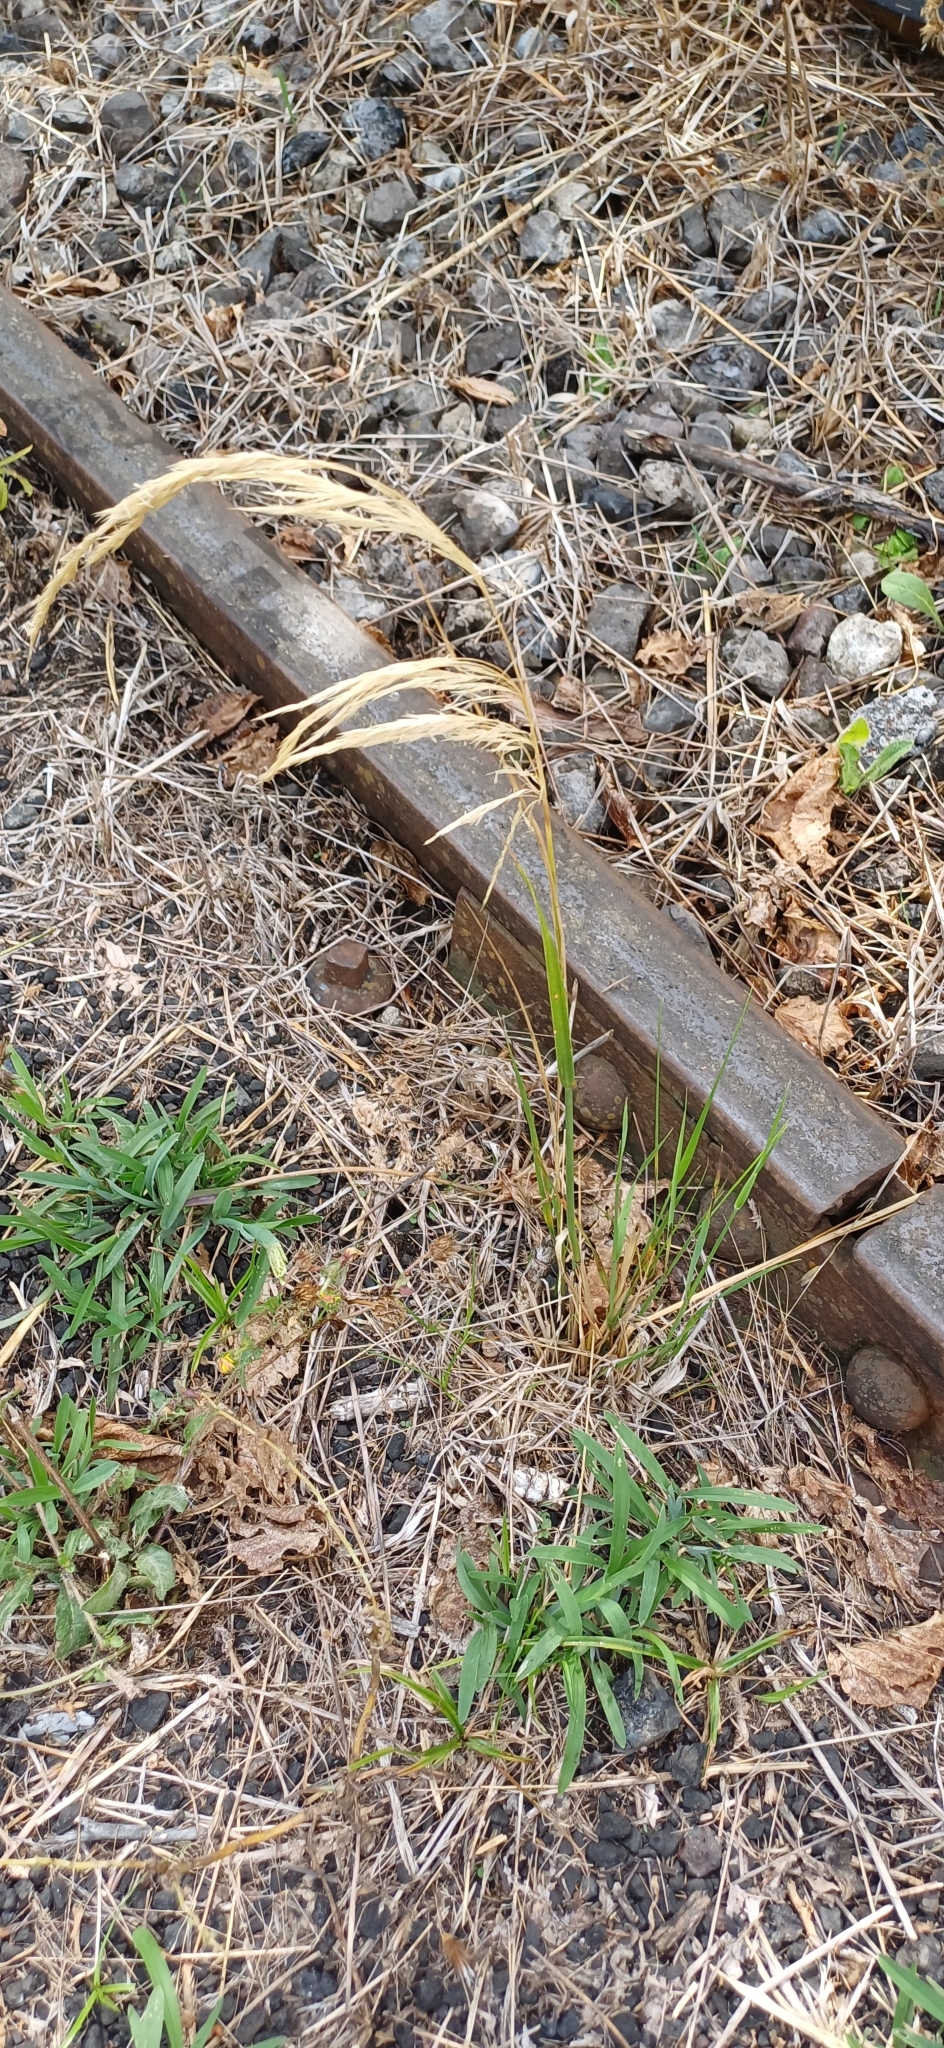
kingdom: Plantae
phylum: Tracheophyta
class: Liliopsida
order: Poales
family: Poaceae
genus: Cinnagrostis
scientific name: Cinnagrostis viridiflavescens
